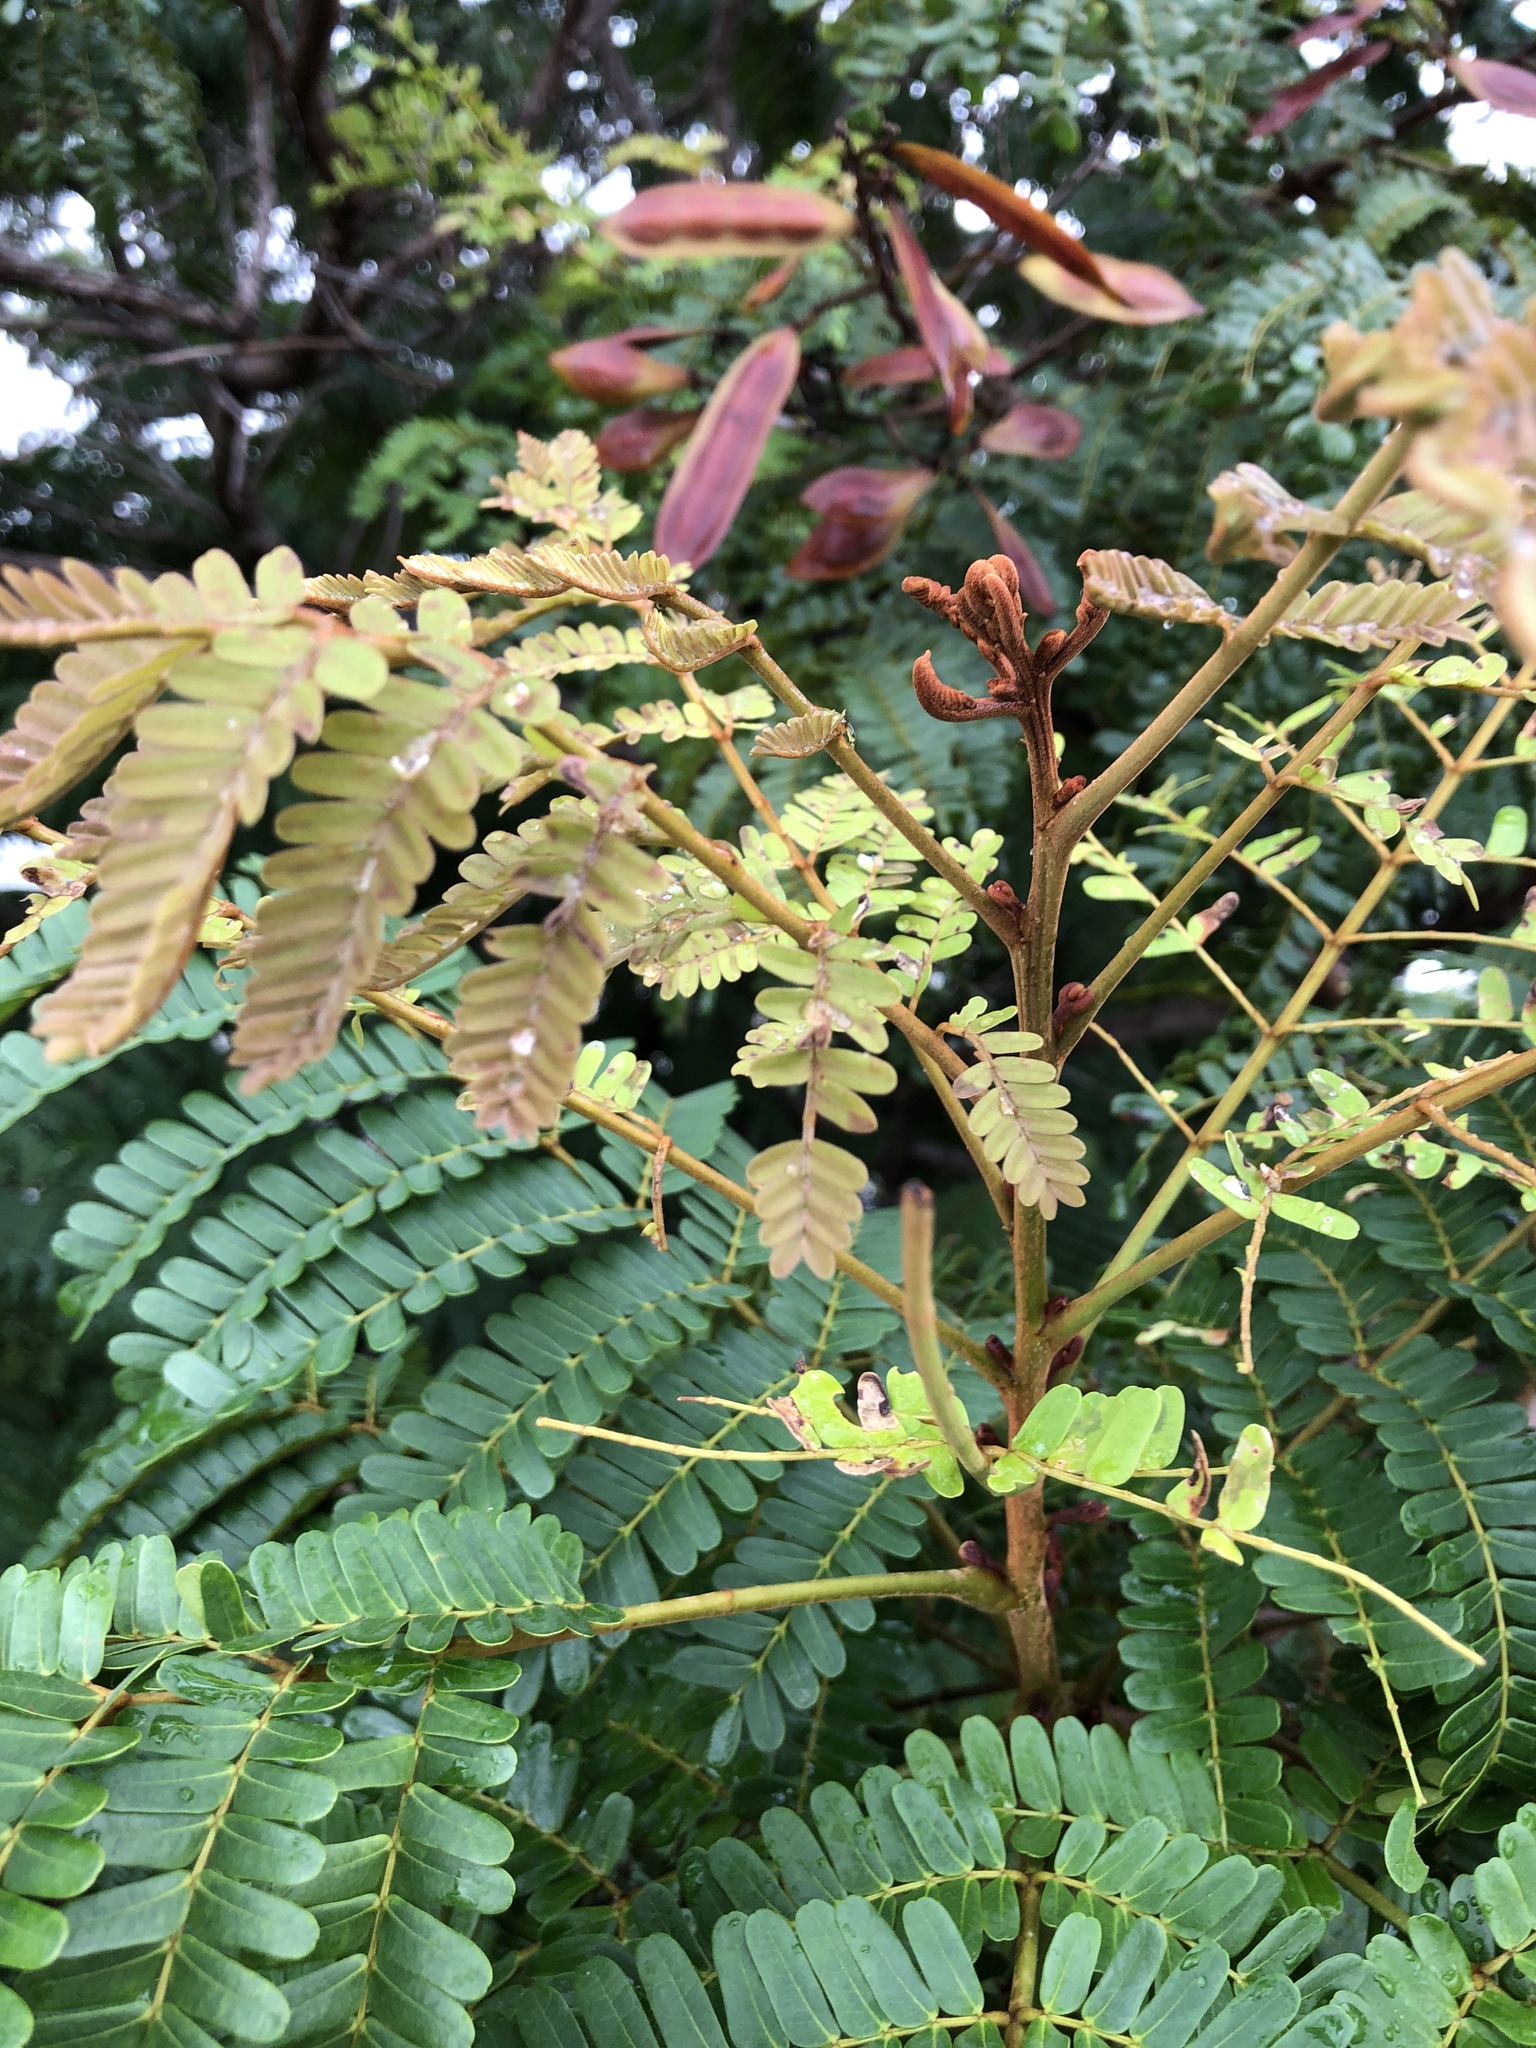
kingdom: Plantae
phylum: Tracheophyta
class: Magnoliopsida
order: Fabales
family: Fabaceae
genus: Peltophorum
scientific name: Peltophorum pterocarpum
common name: Yellow flame
